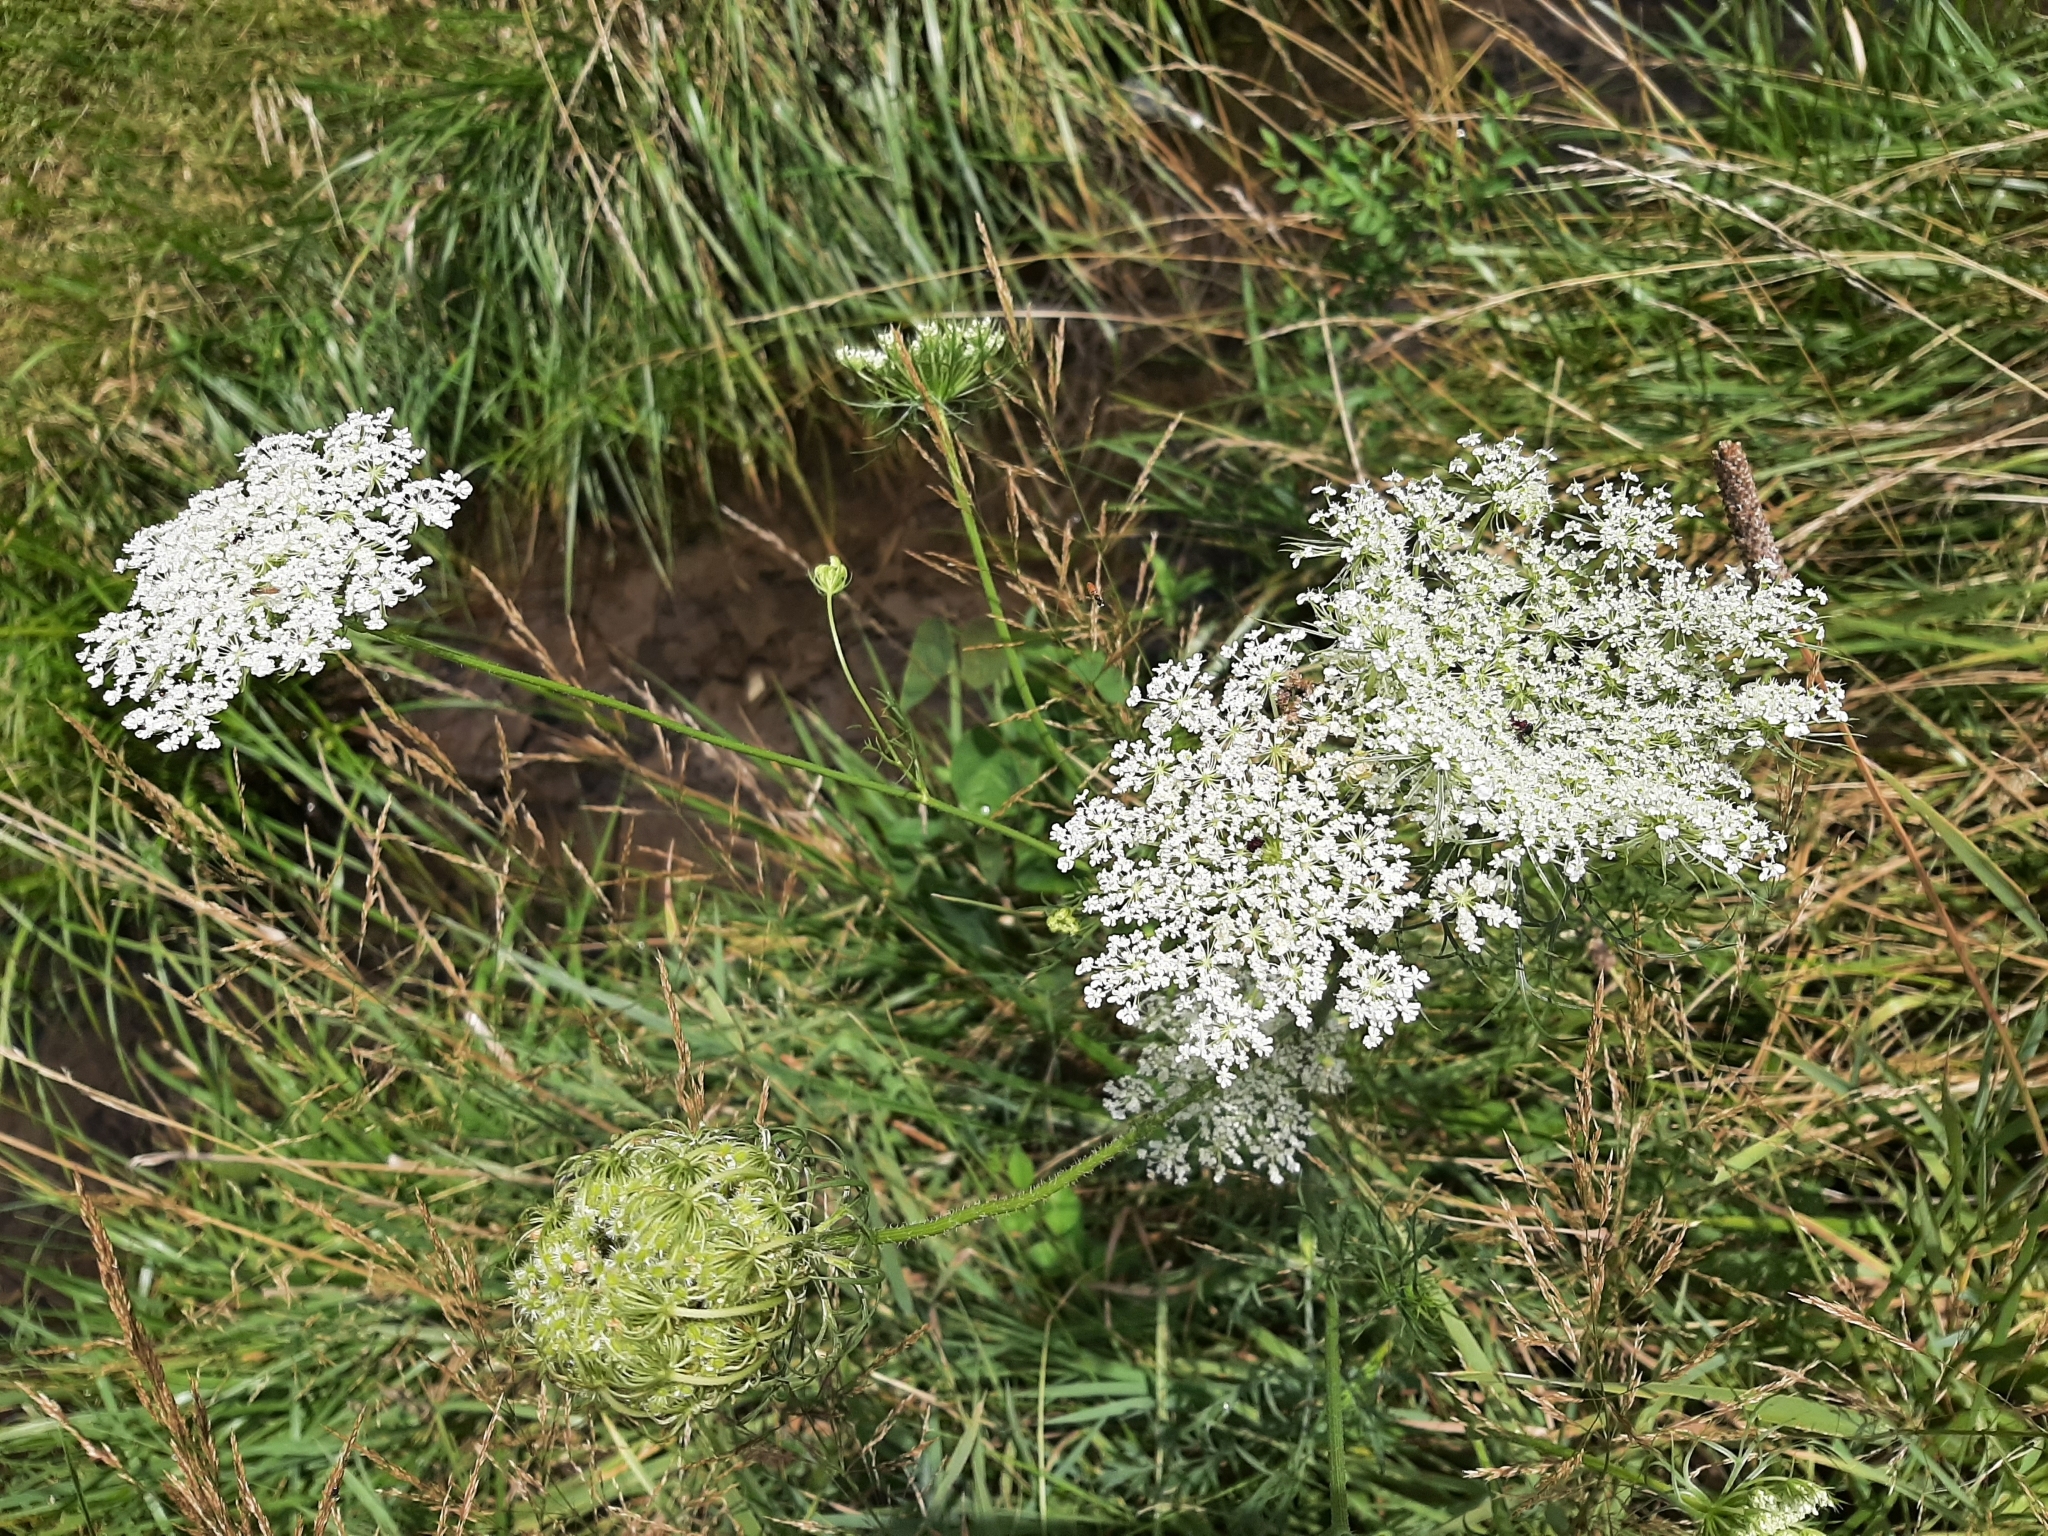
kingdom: Plantae
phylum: Tracheophyta
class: Magnoliopsida
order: Apiales
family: Apiaceae
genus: Daucus
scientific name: Daucus carota
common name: Wild carrot
